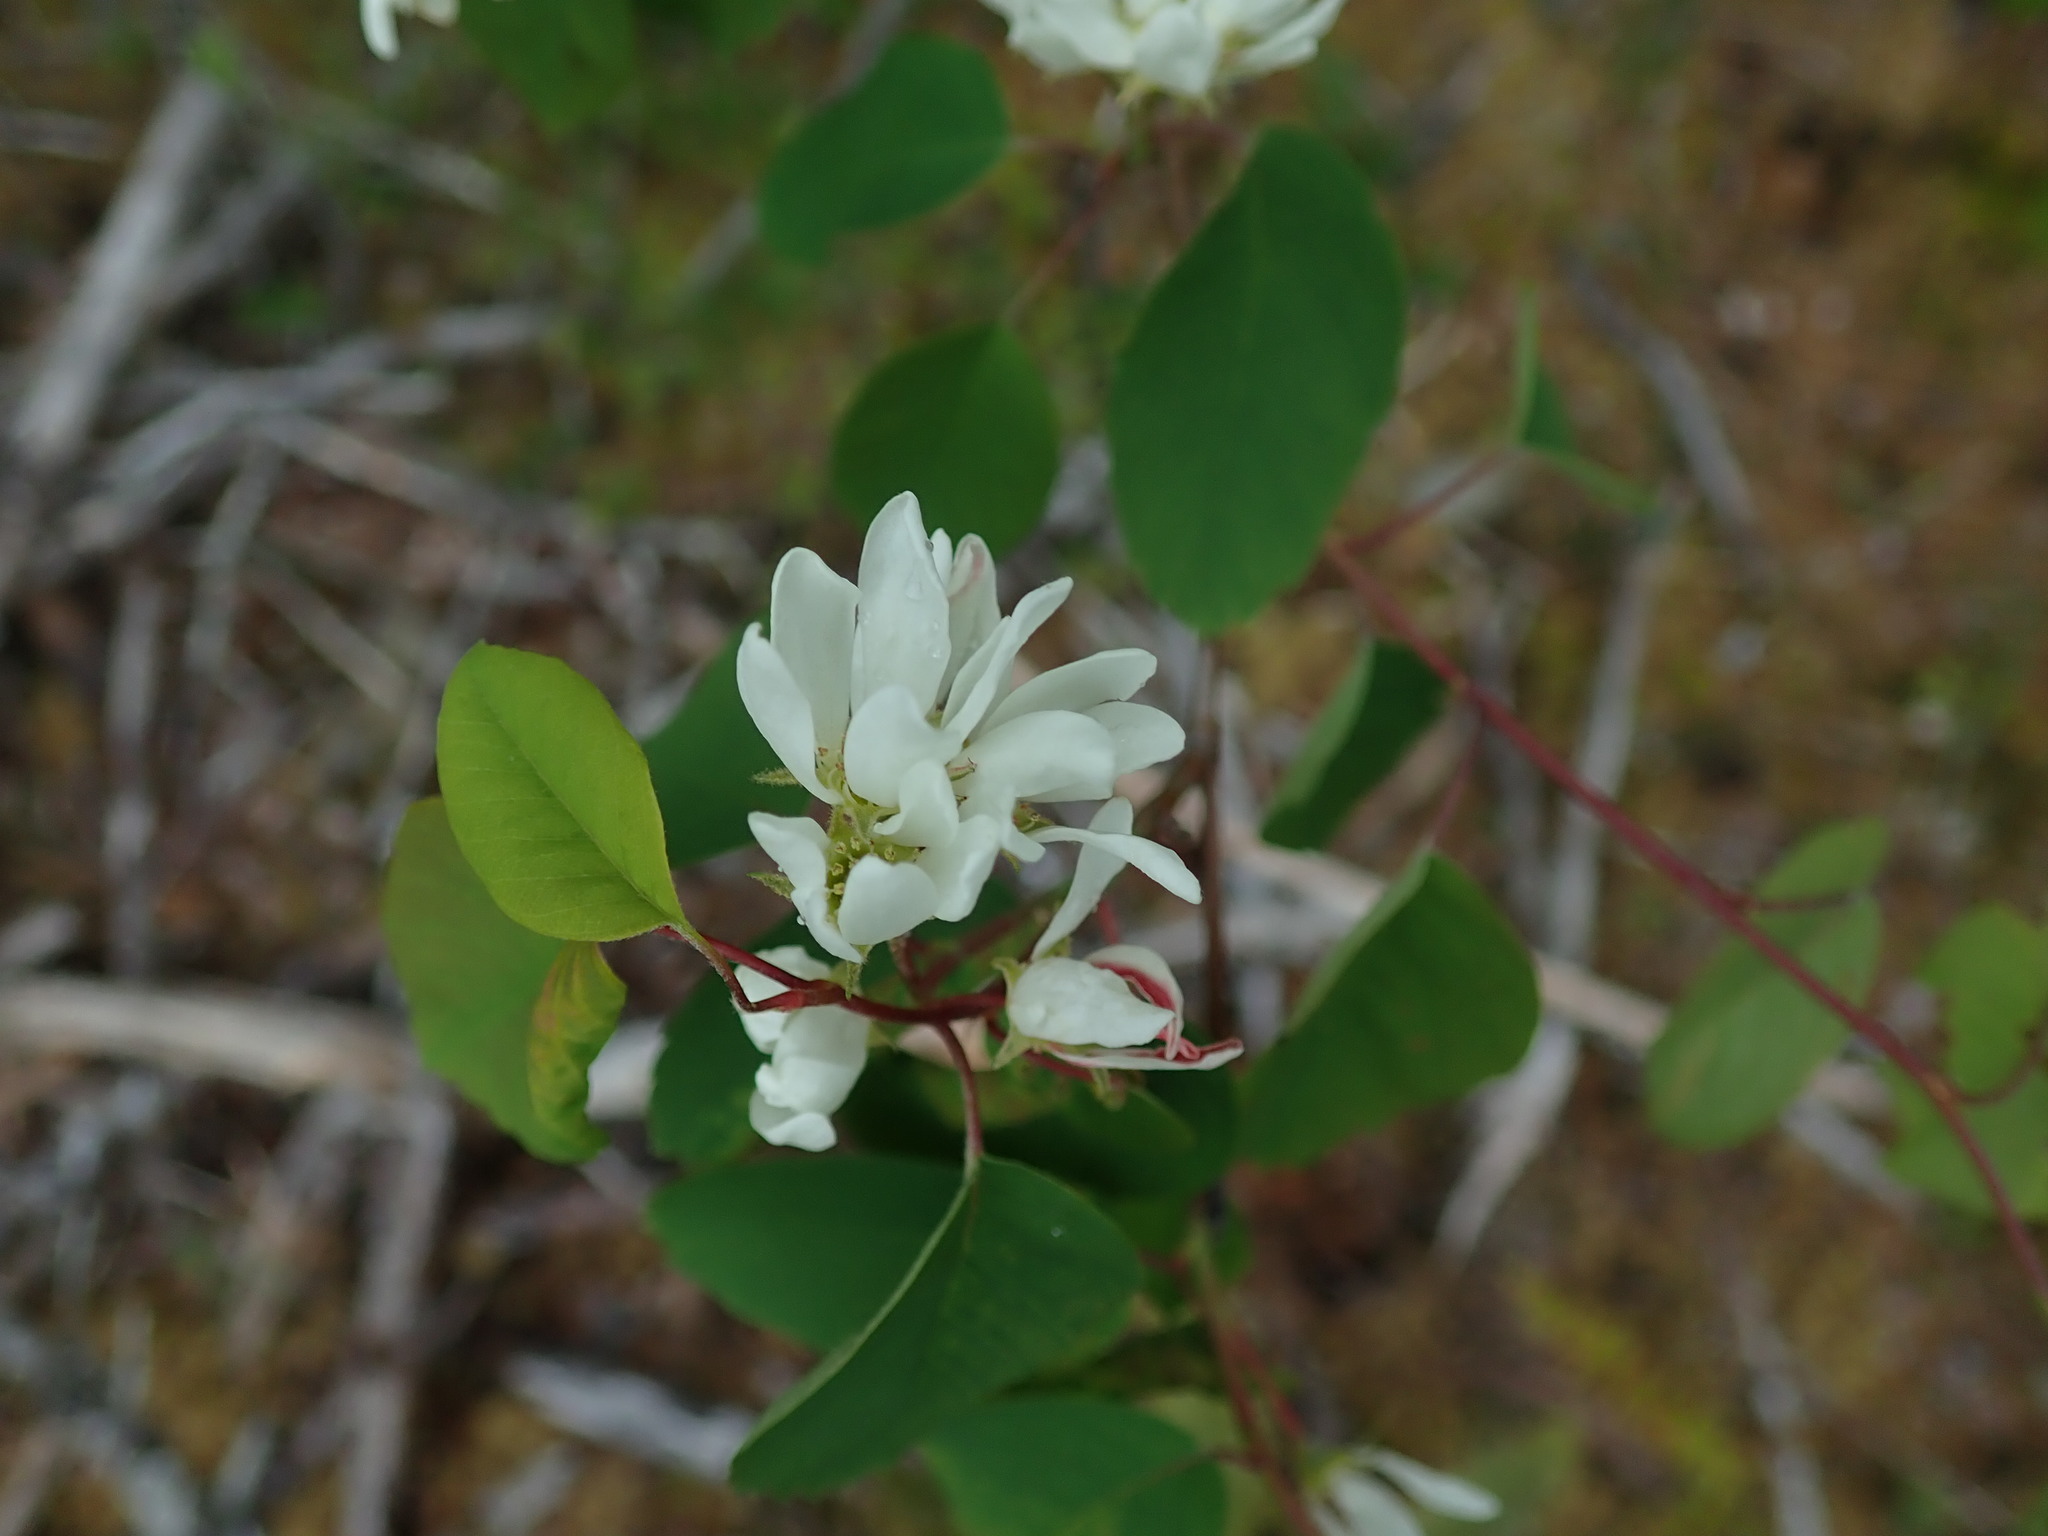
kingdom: Plantae
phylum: Tracheophyta
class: Magnoliopsida
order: Rosales
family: Rosaceae
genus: Amelanchier
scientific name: Amelanchier alnifolia
